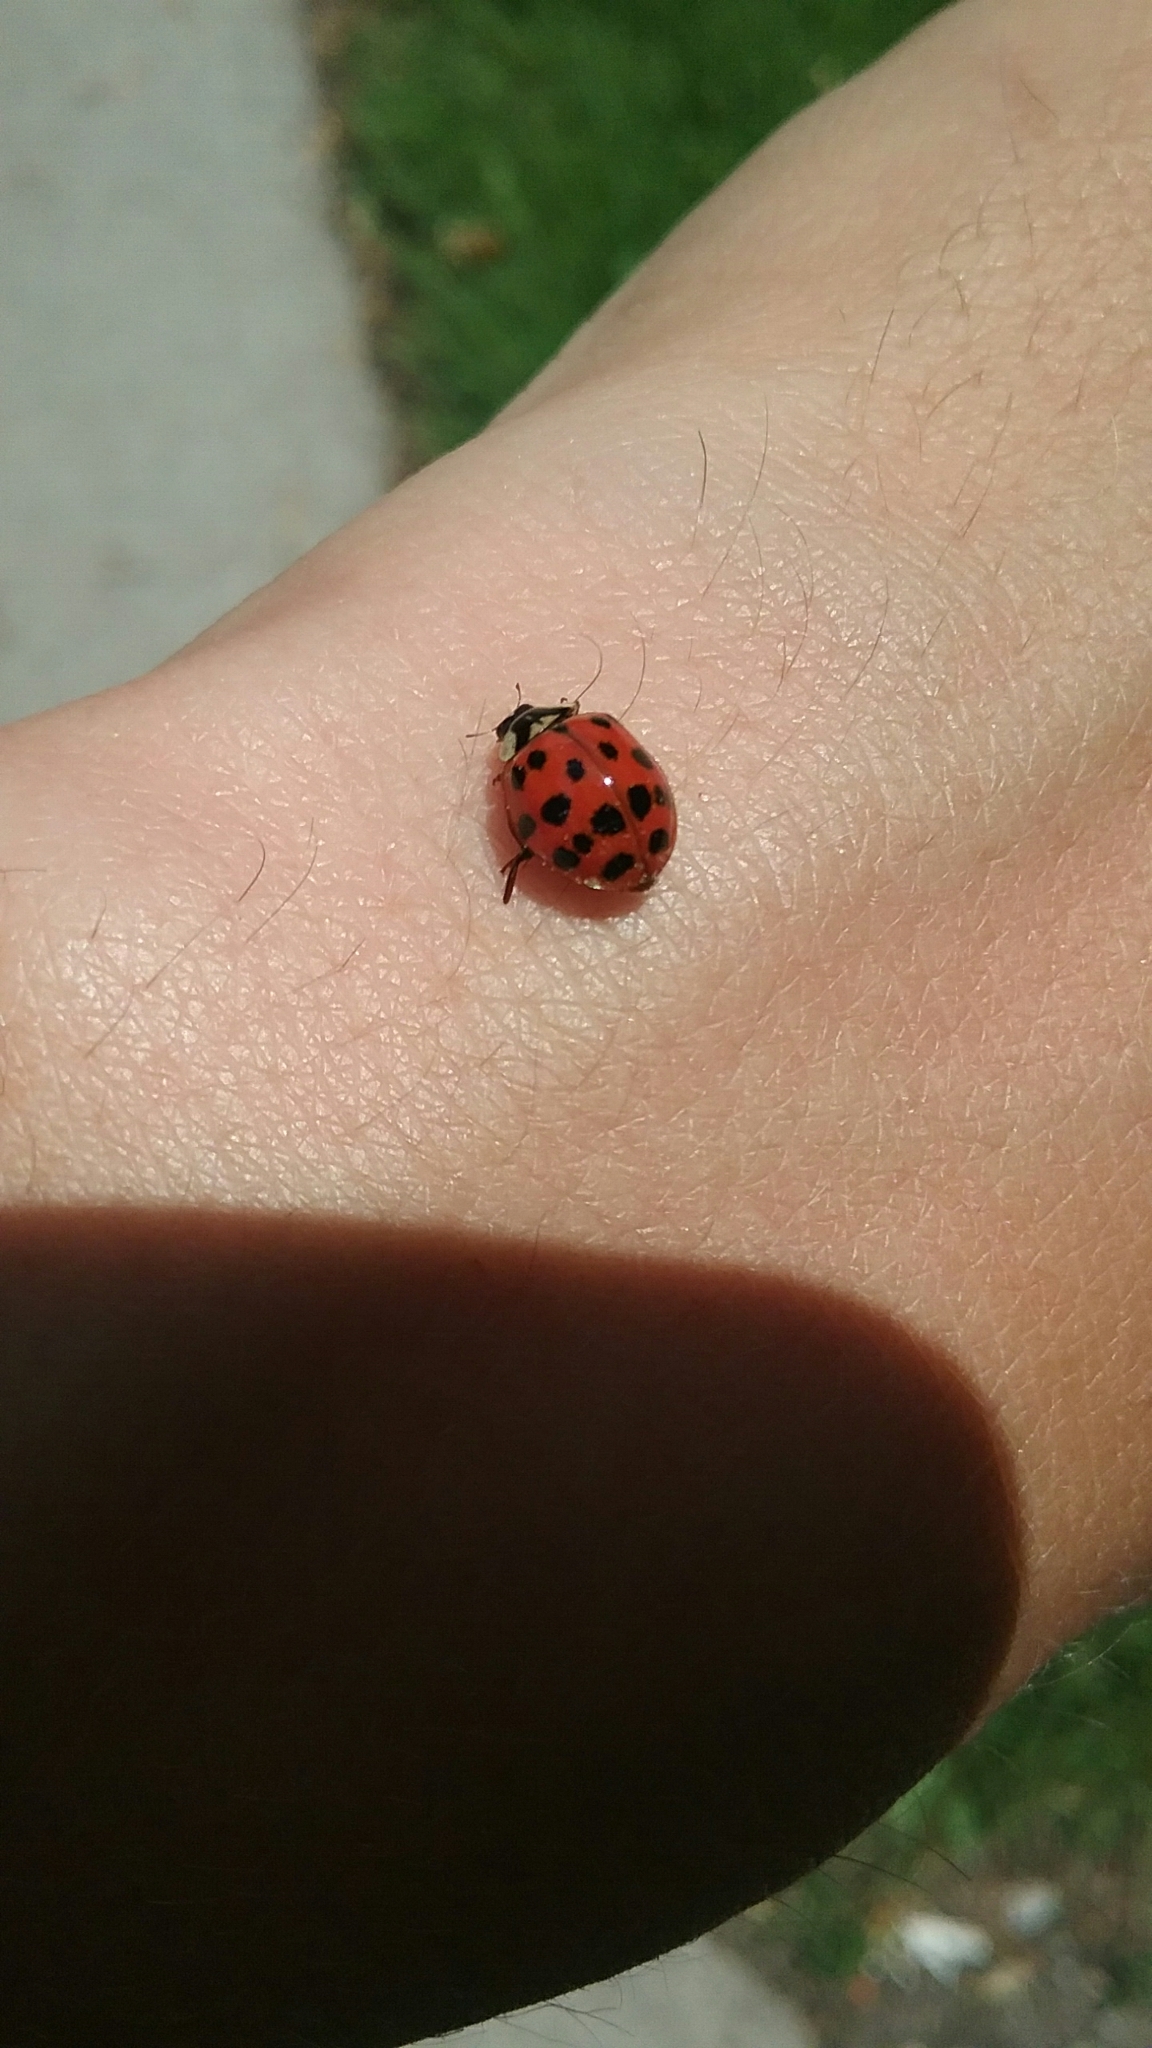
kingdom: Animalia
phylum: Arthropoda
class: Insecta
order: Coleoptera
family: Coccinellidae
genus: Harmonia
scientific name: Harmonia axyridis
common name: Harlequin ladybird
